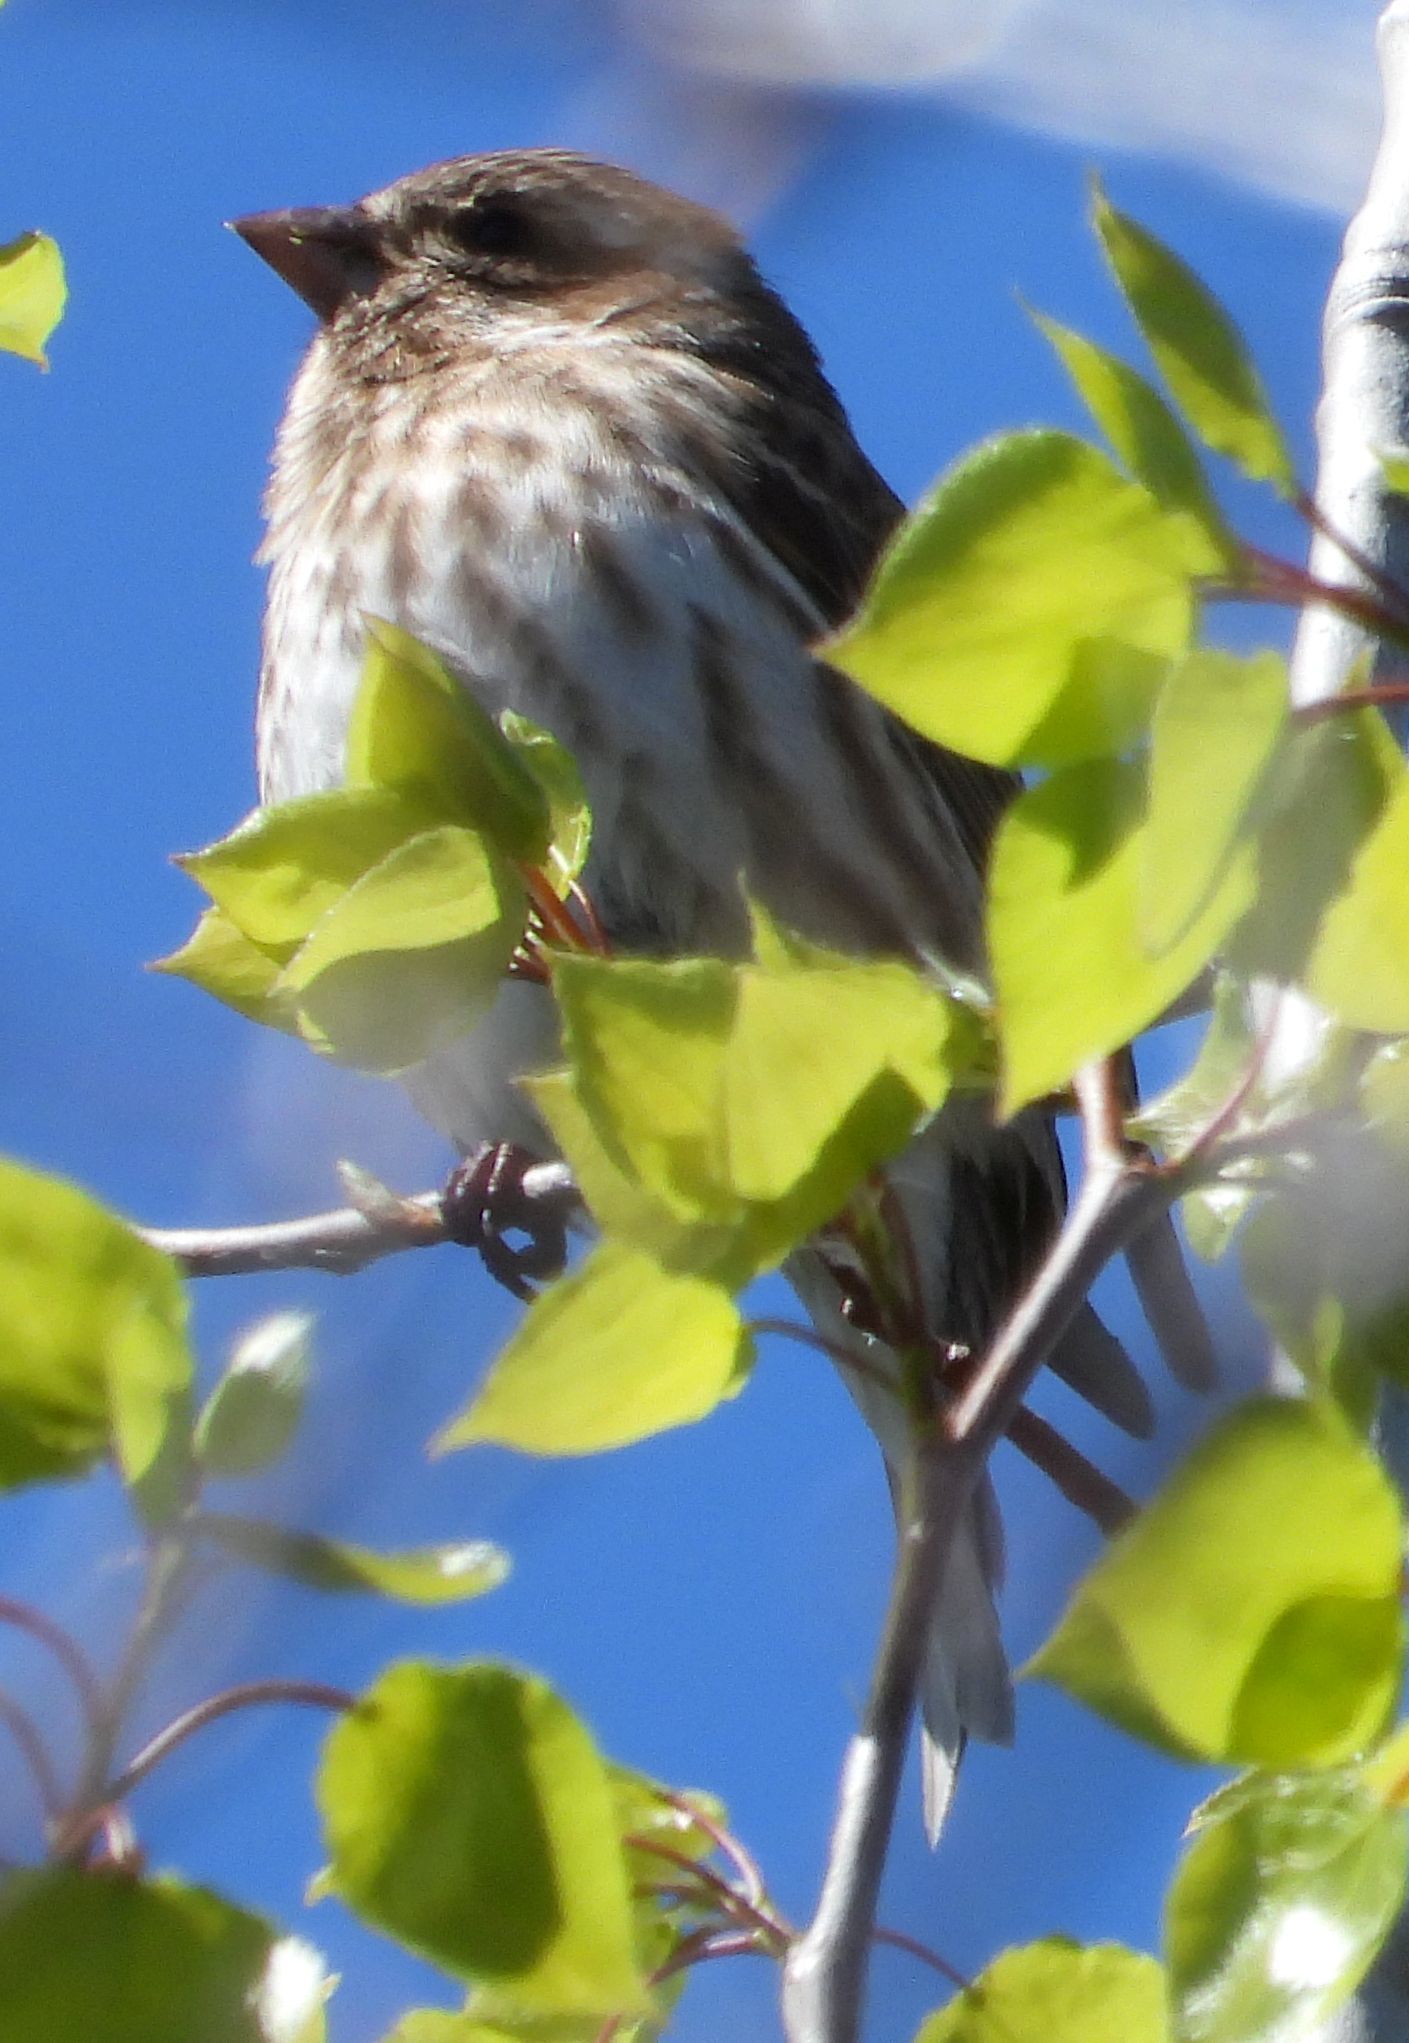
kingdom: Animalia
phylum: Chordata
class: Aves
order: Passeriformes
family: Fringillidae
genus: Haemorhous
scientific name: Haemorhous purpureus
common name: Purple finch
